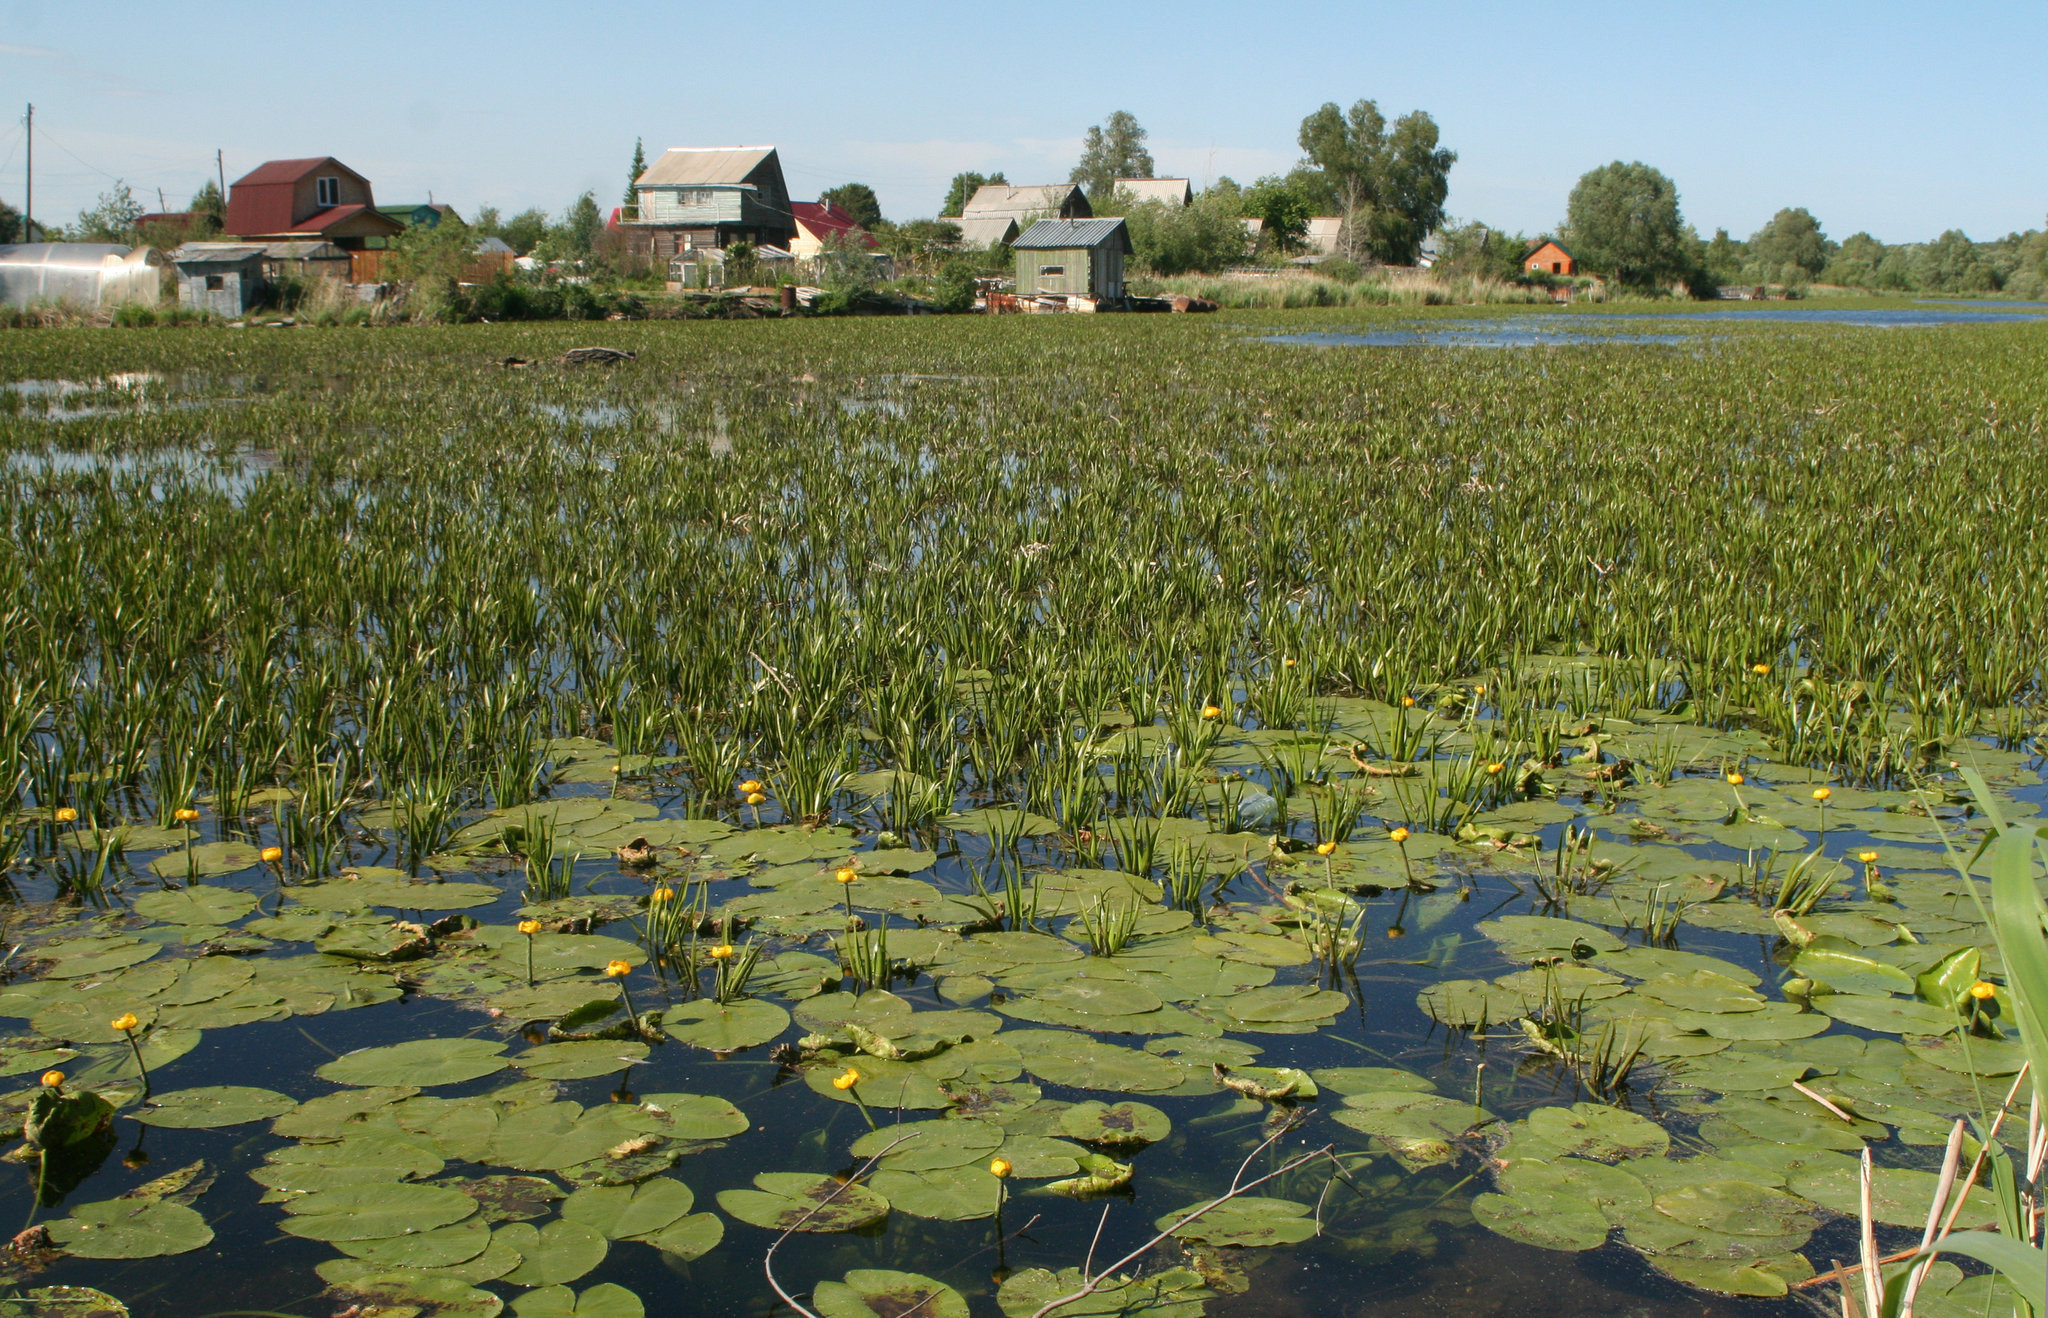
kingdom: Plantae
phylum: Tracheophyta
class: Magnoliopsida
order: Nymphaeales
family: Nymphaeaceae
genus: Nuphar
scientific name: Nuphar lutea
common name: Yellow water-lily
